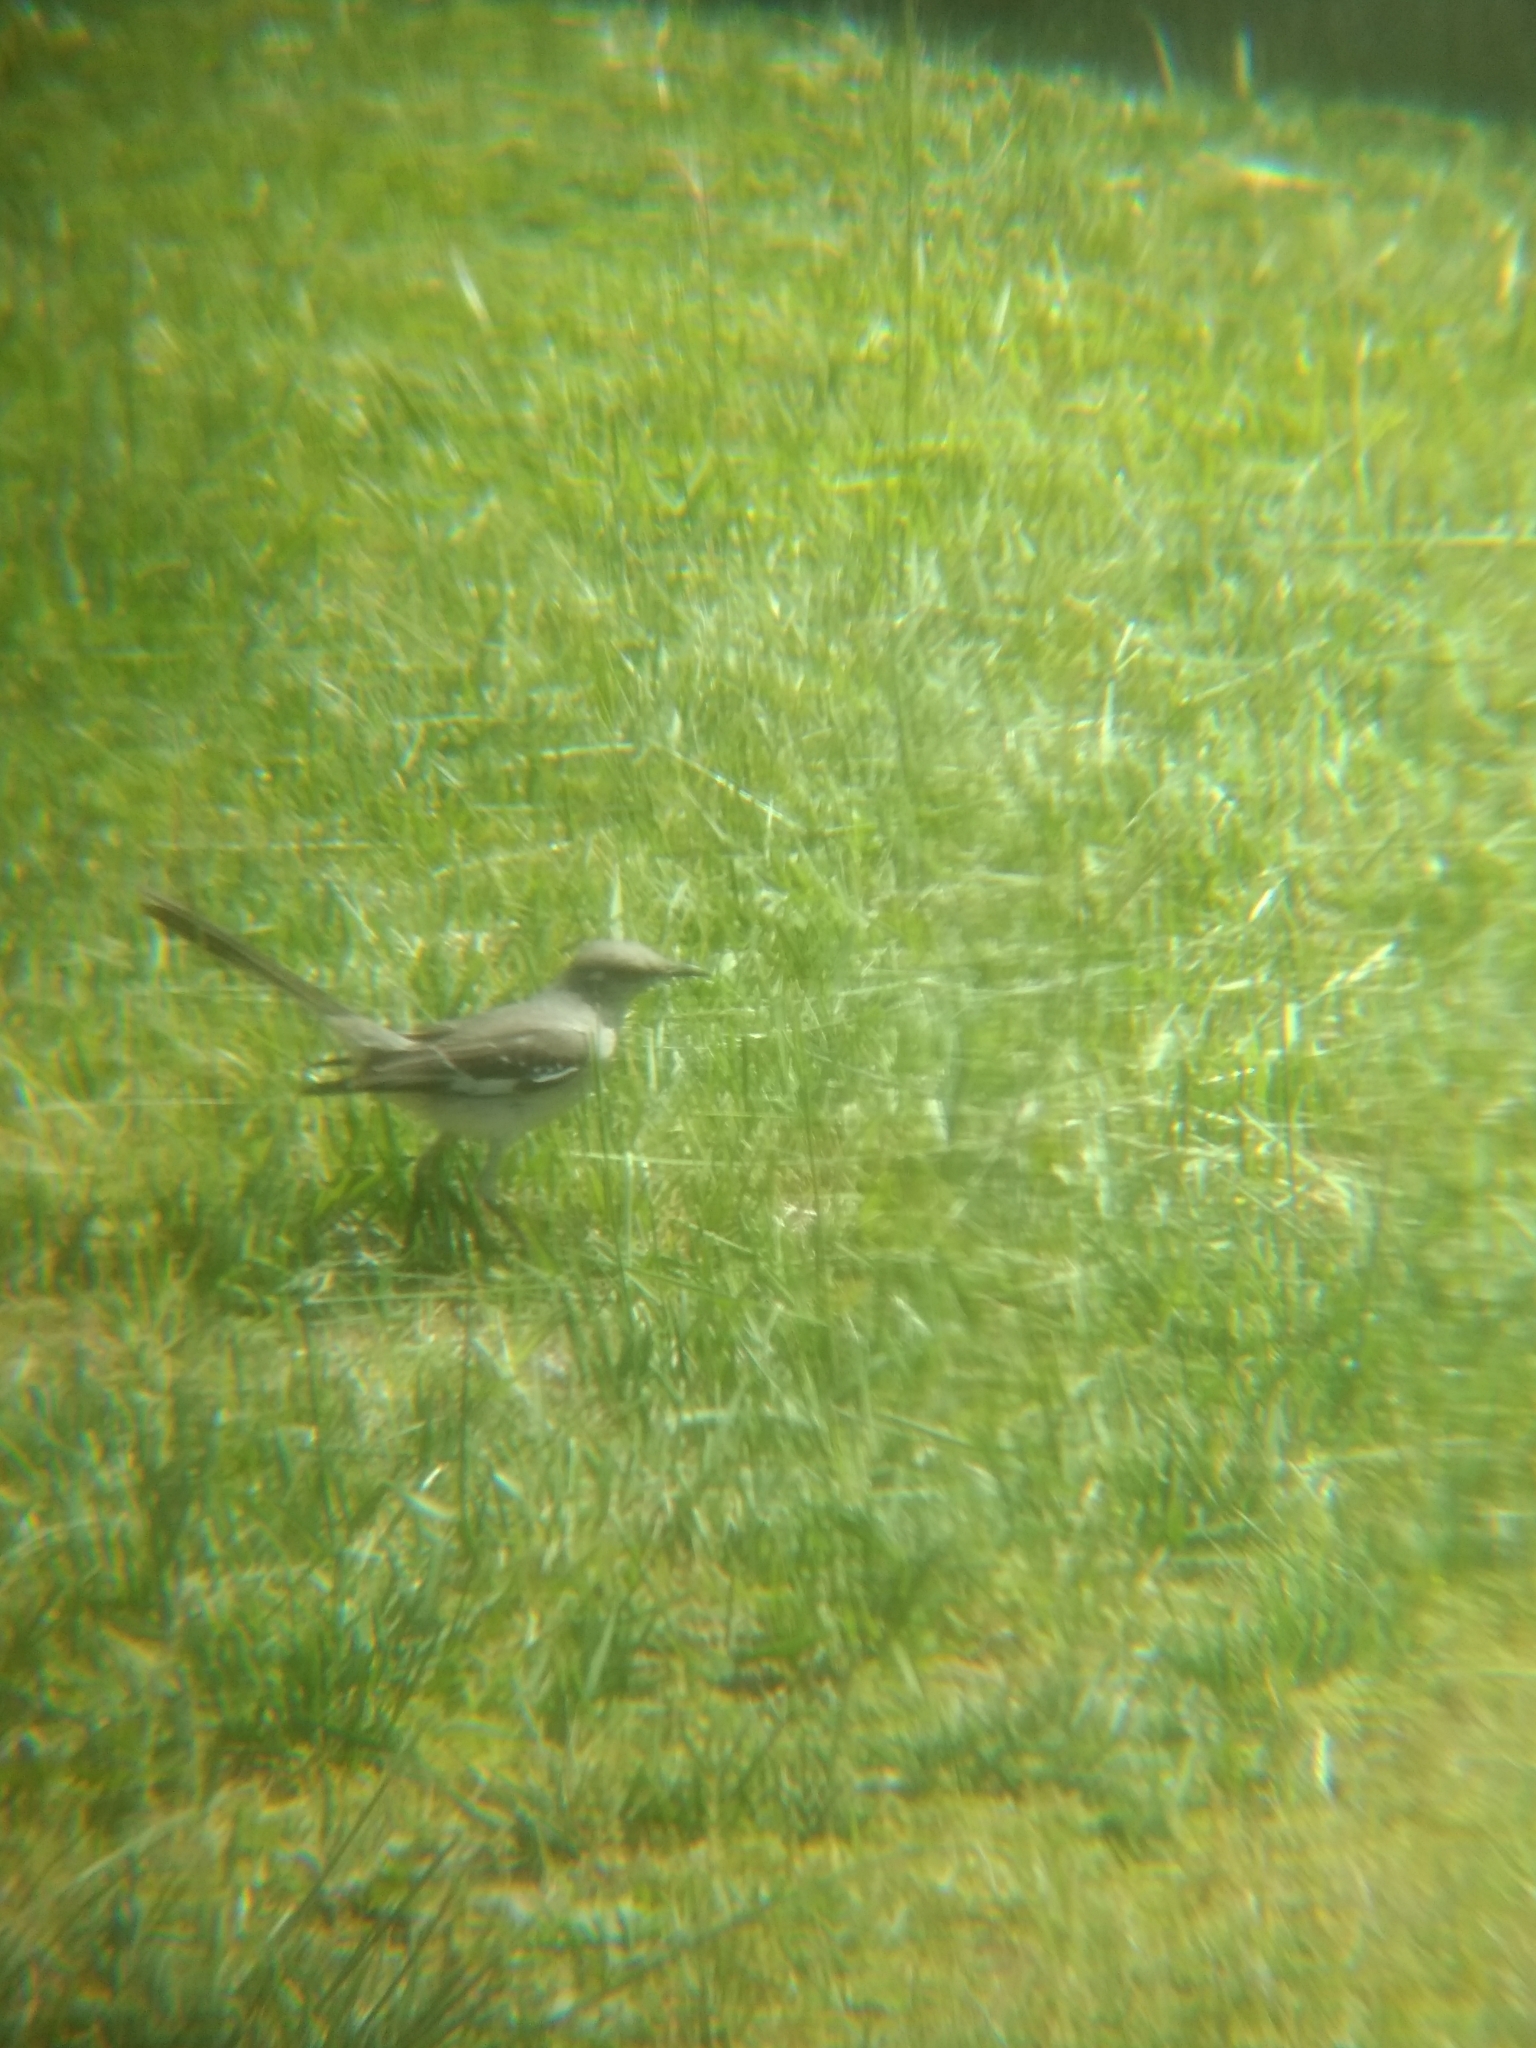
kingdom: Animalia
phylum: Chordata
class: Aves
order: Passeriformes
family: Mimidae
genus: Mimus
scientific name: Mimus polyglottos
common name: Northern mockingbird
